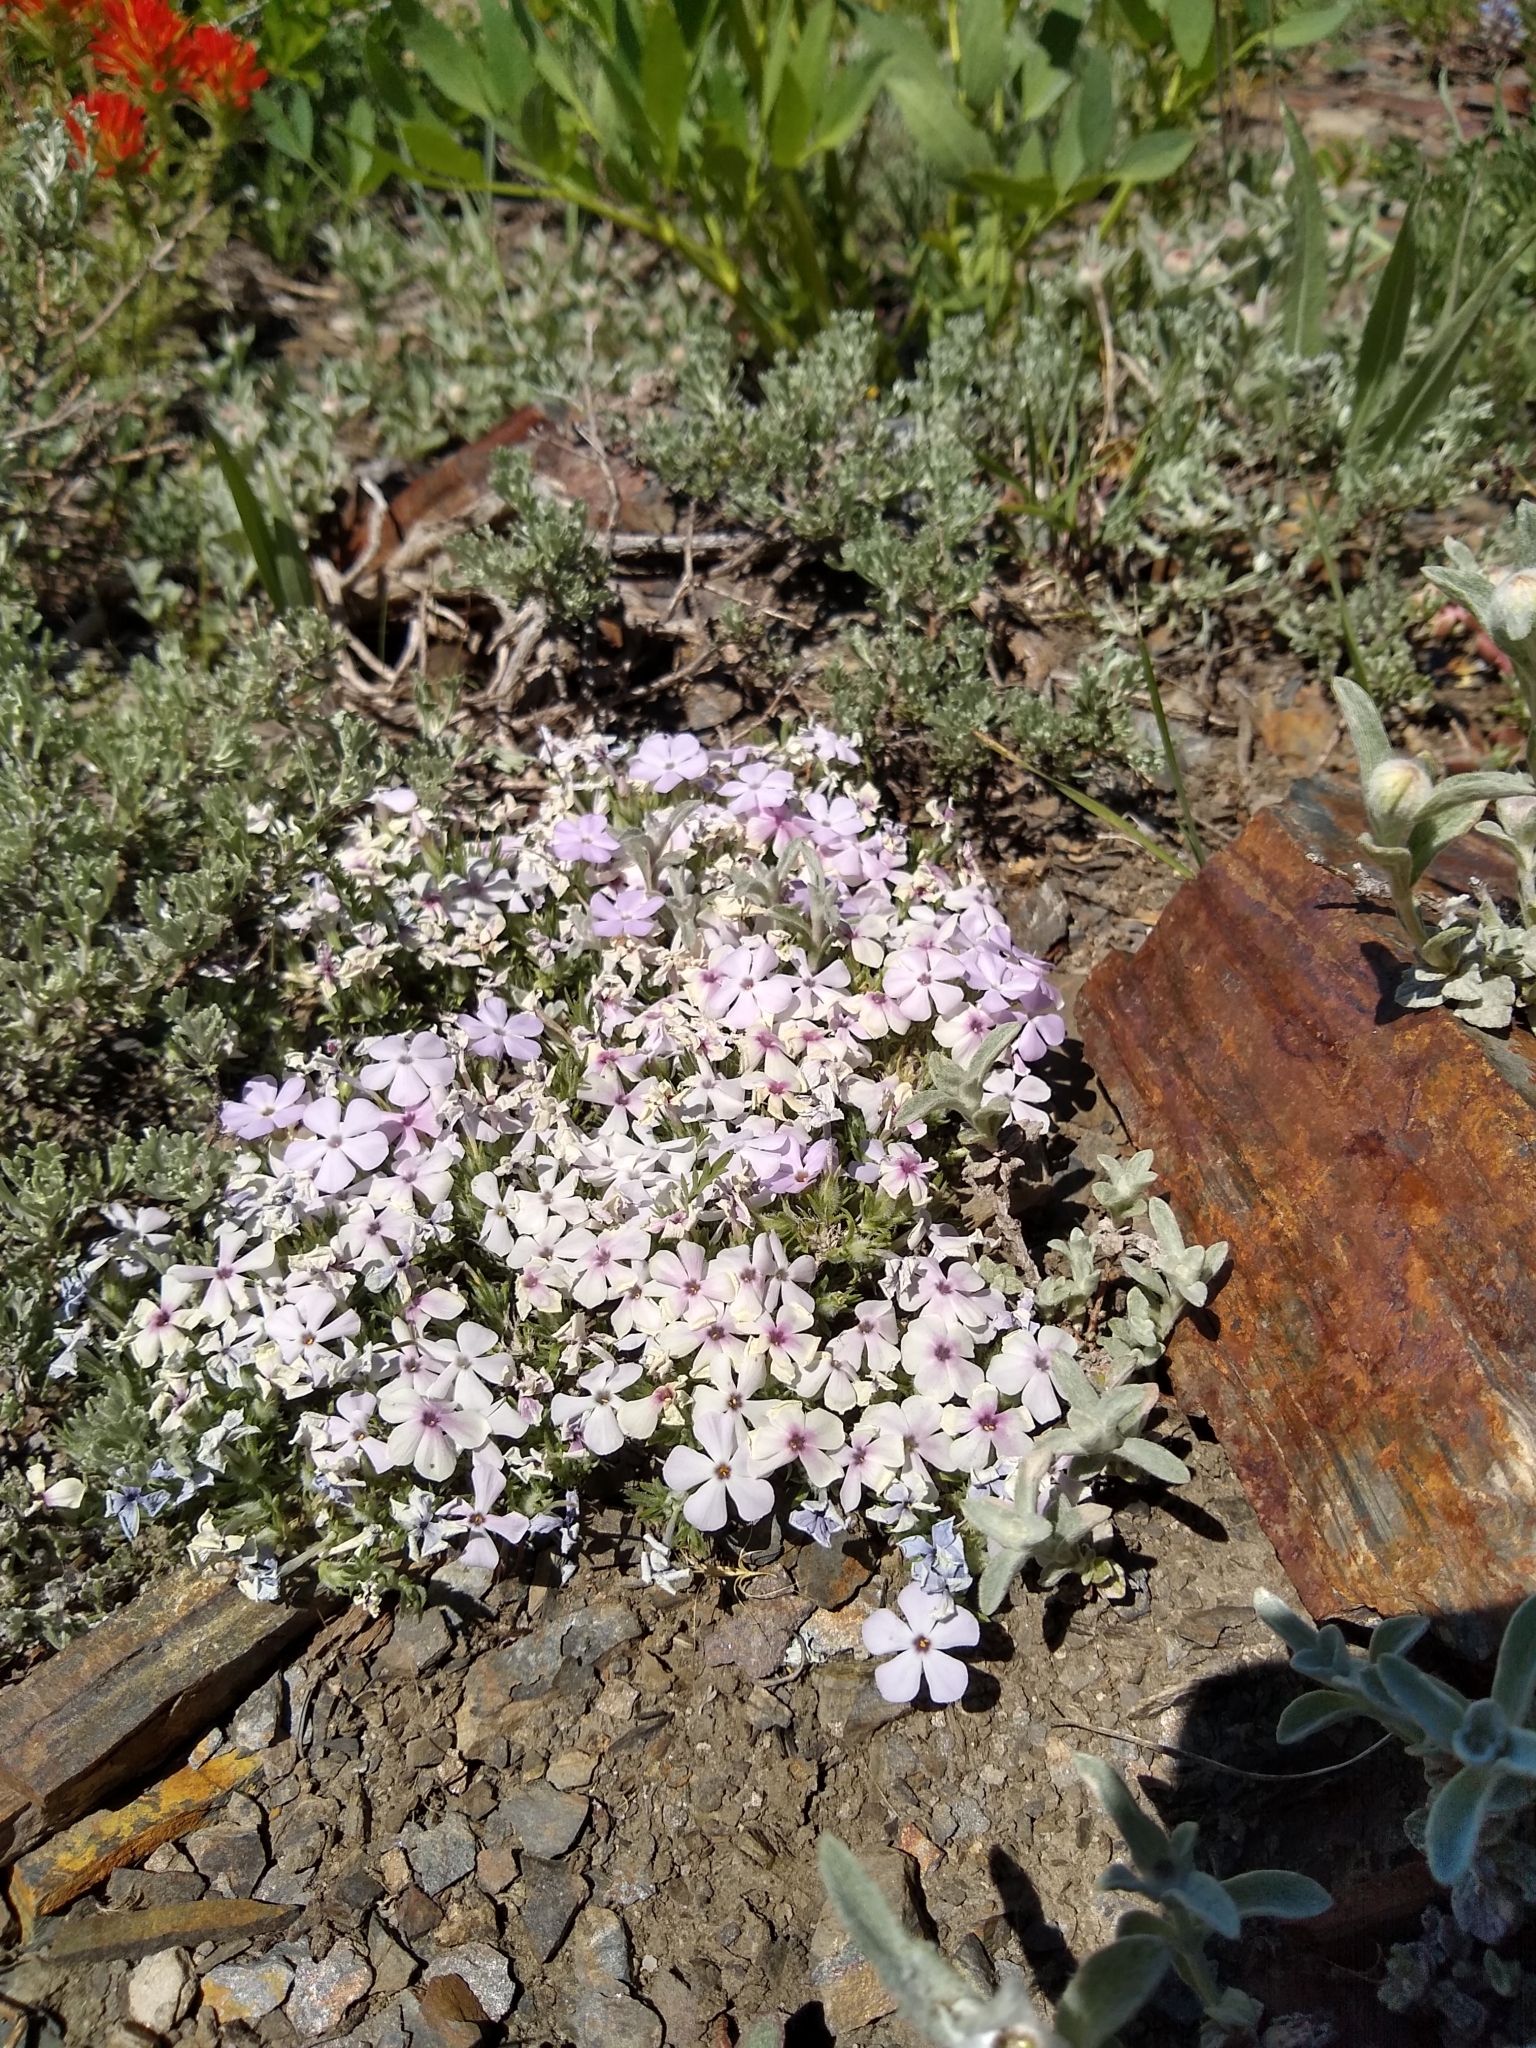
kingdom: Plantae
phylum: Tracheophyta
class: Magnoliopsida
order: Ericales
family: Polemoniaceae
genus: Phlox
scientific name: Phlox diffusa
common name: Mat phlox
